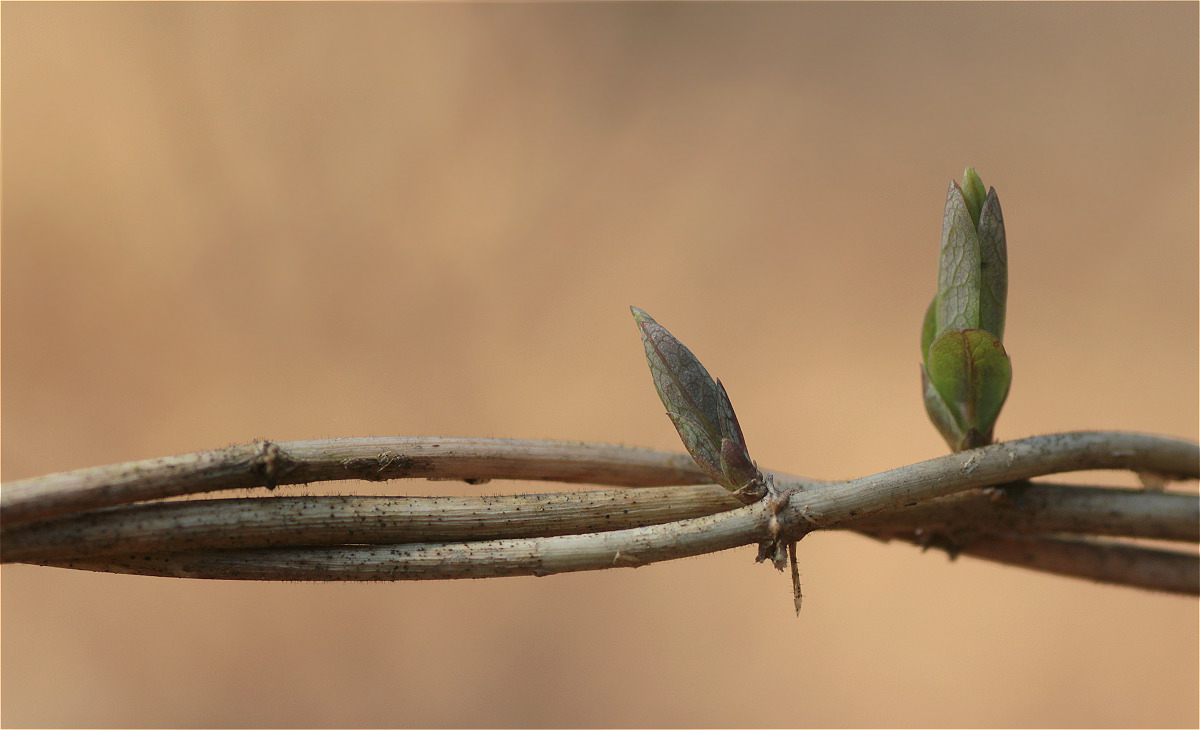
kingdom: Plantae
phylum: Tracheophyta
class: Magnoliopsida
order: Dipsacales
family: Caprifoliaceae
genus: Lonicera
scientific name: Lonicera periclymenum
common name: European honeysuckle
